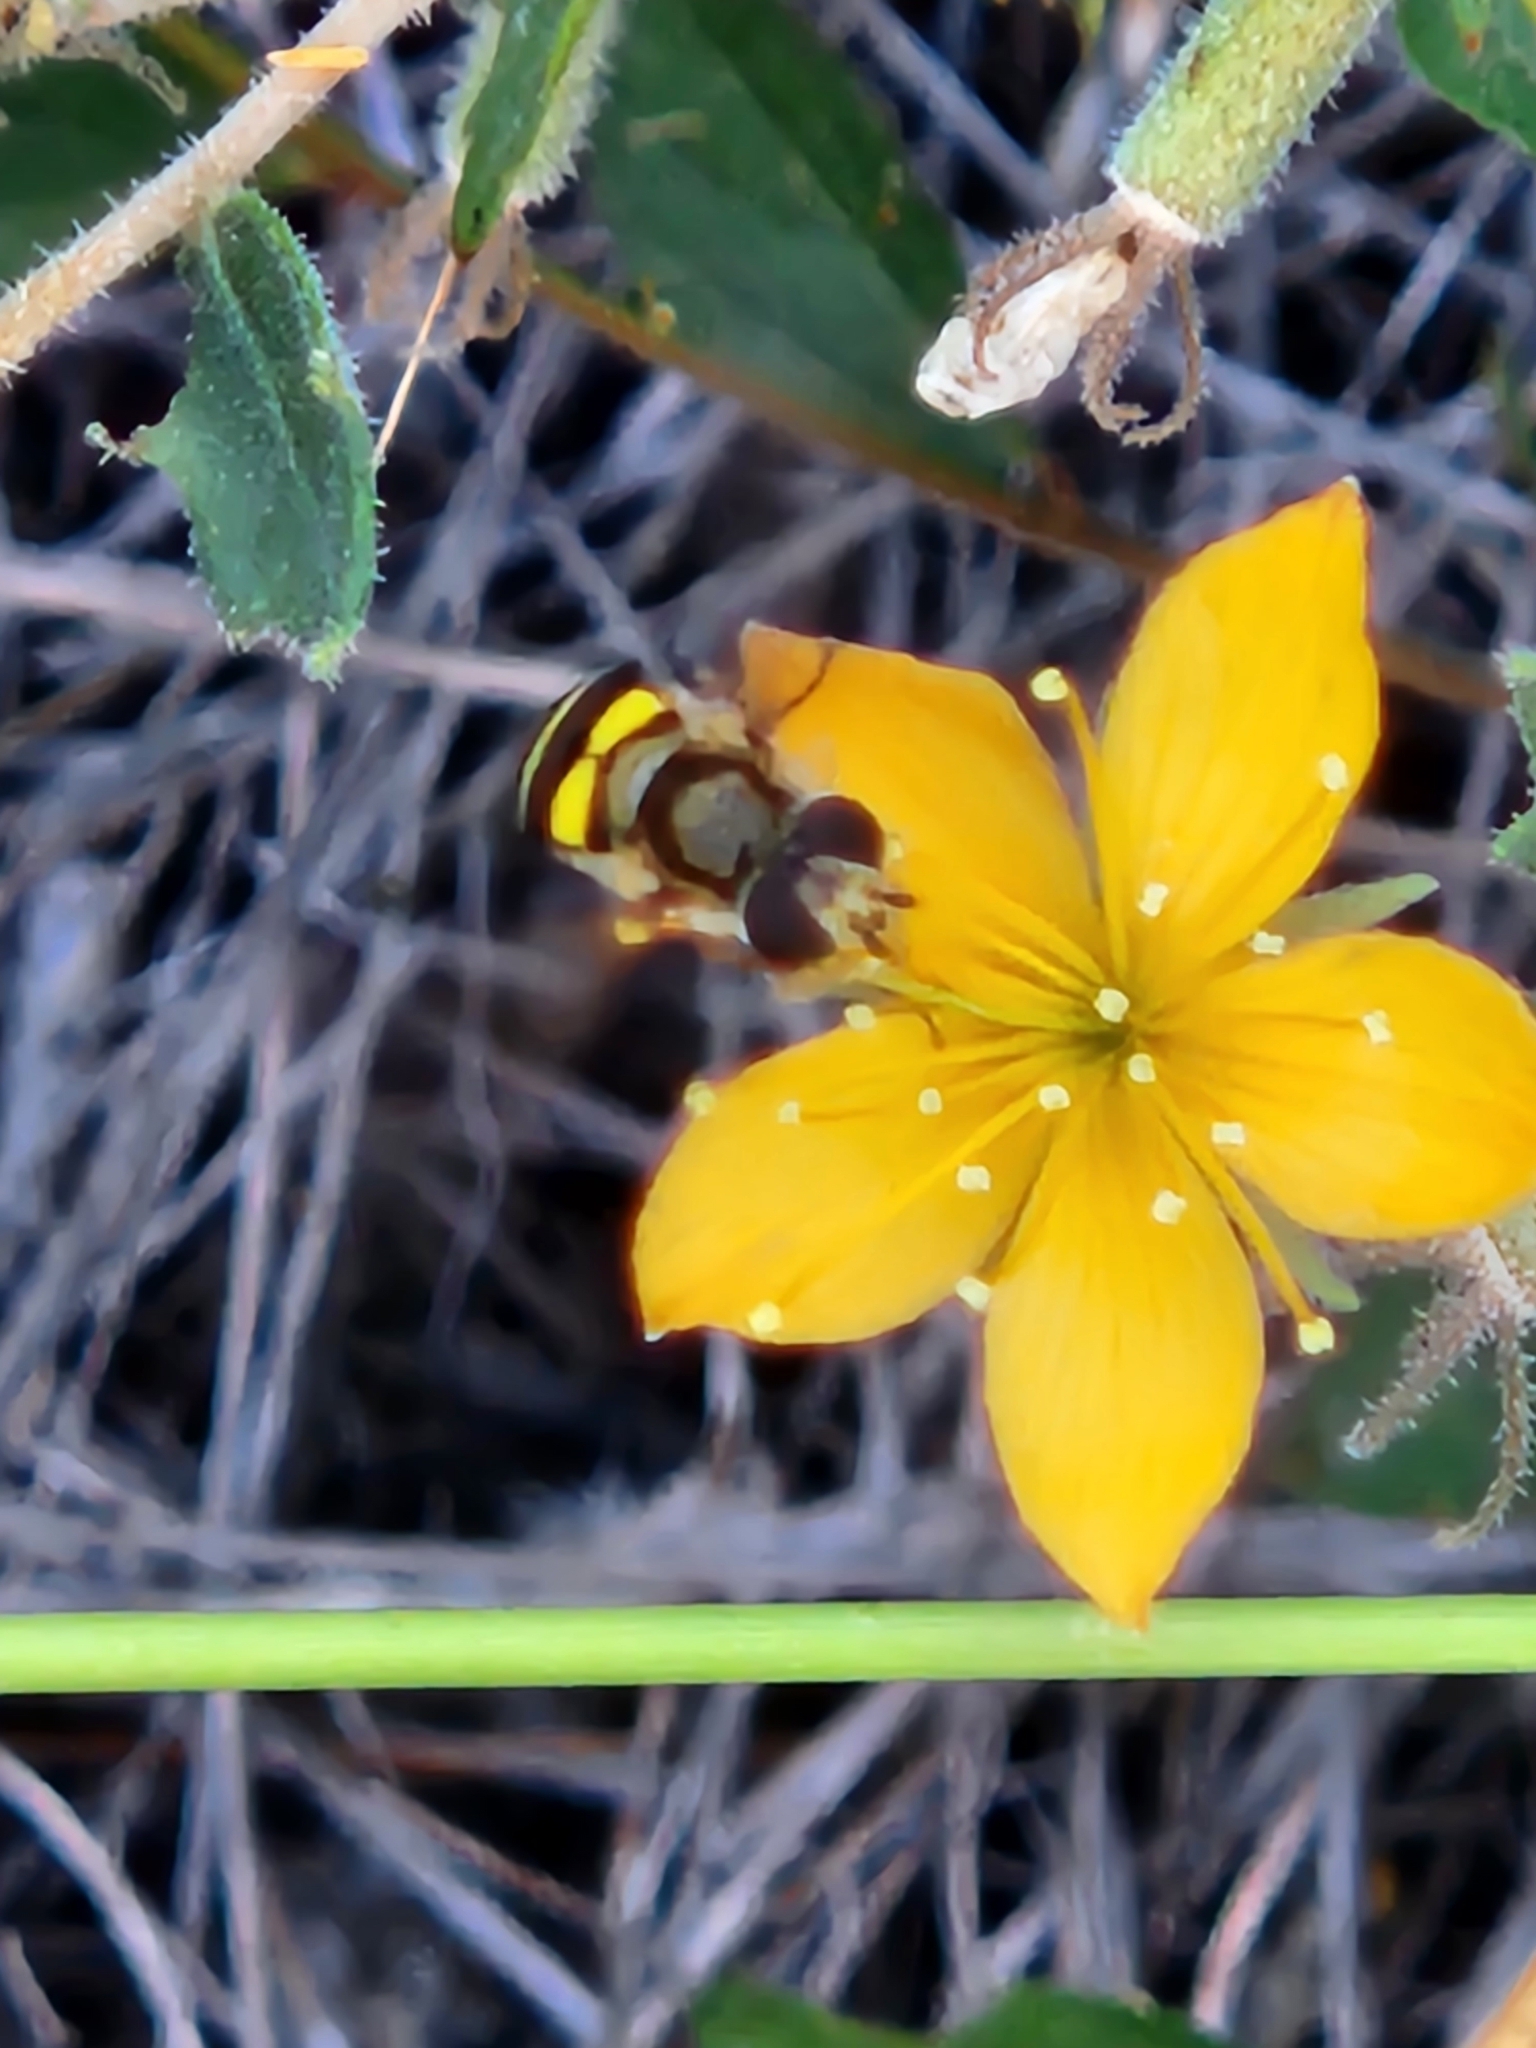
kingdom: Animalia
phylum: Arthropoda
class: Insecta
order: Diptera
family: Syrphidae
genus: Eupeodes
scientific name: Eupeodes
